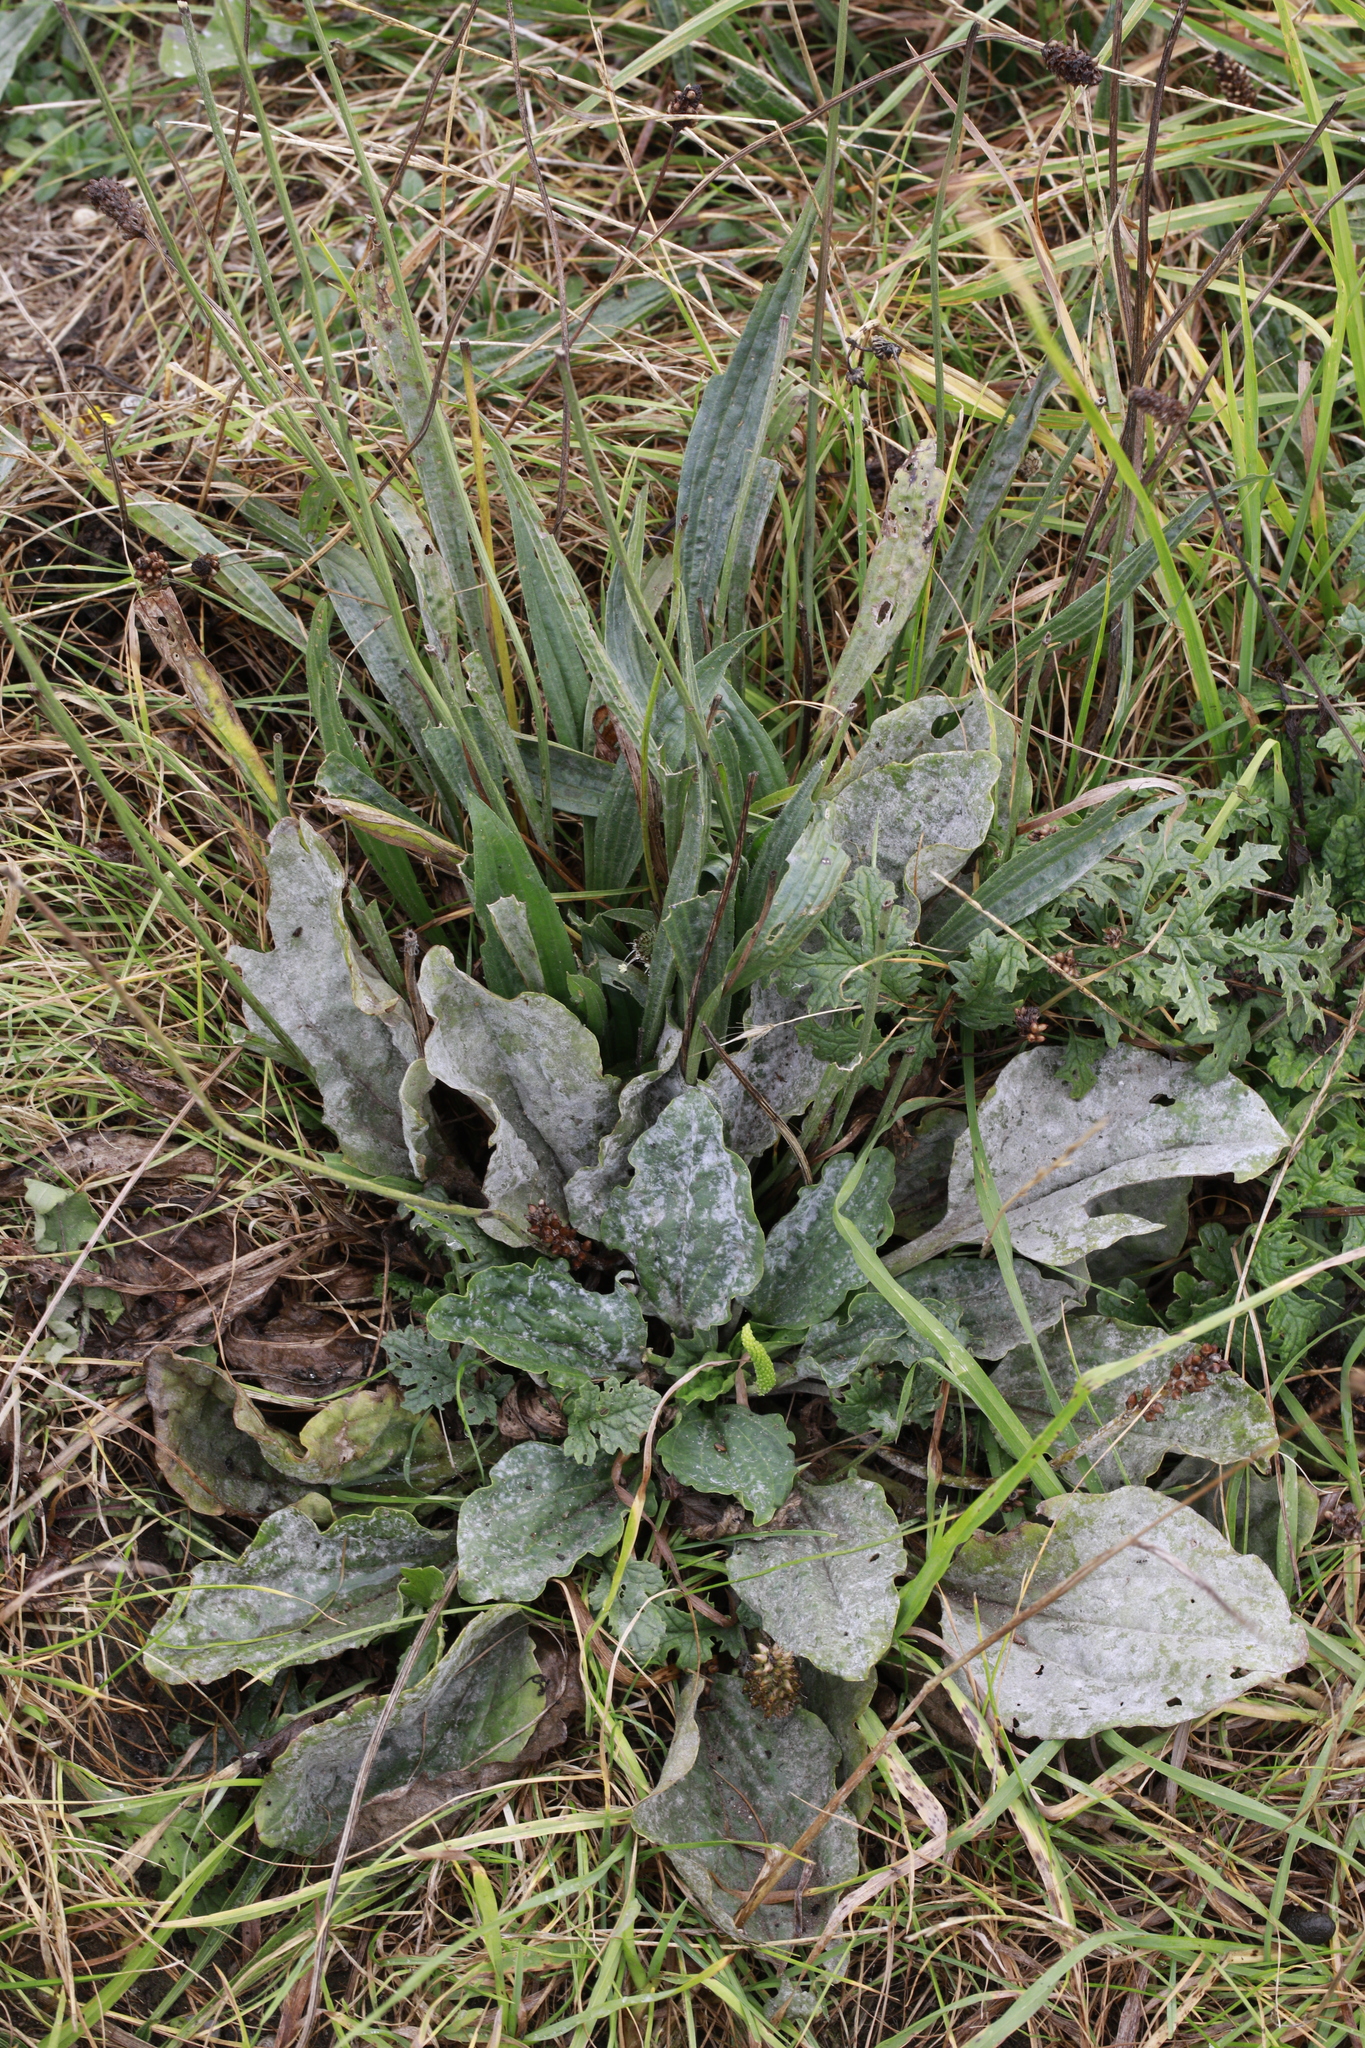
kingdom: Plantae
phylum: Tracheophyta
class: Magnoliopsida
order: Lamiales
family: Plantaginaceae
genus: Plantago
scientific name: Plantago lanceolata
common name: Ribwort plantain
